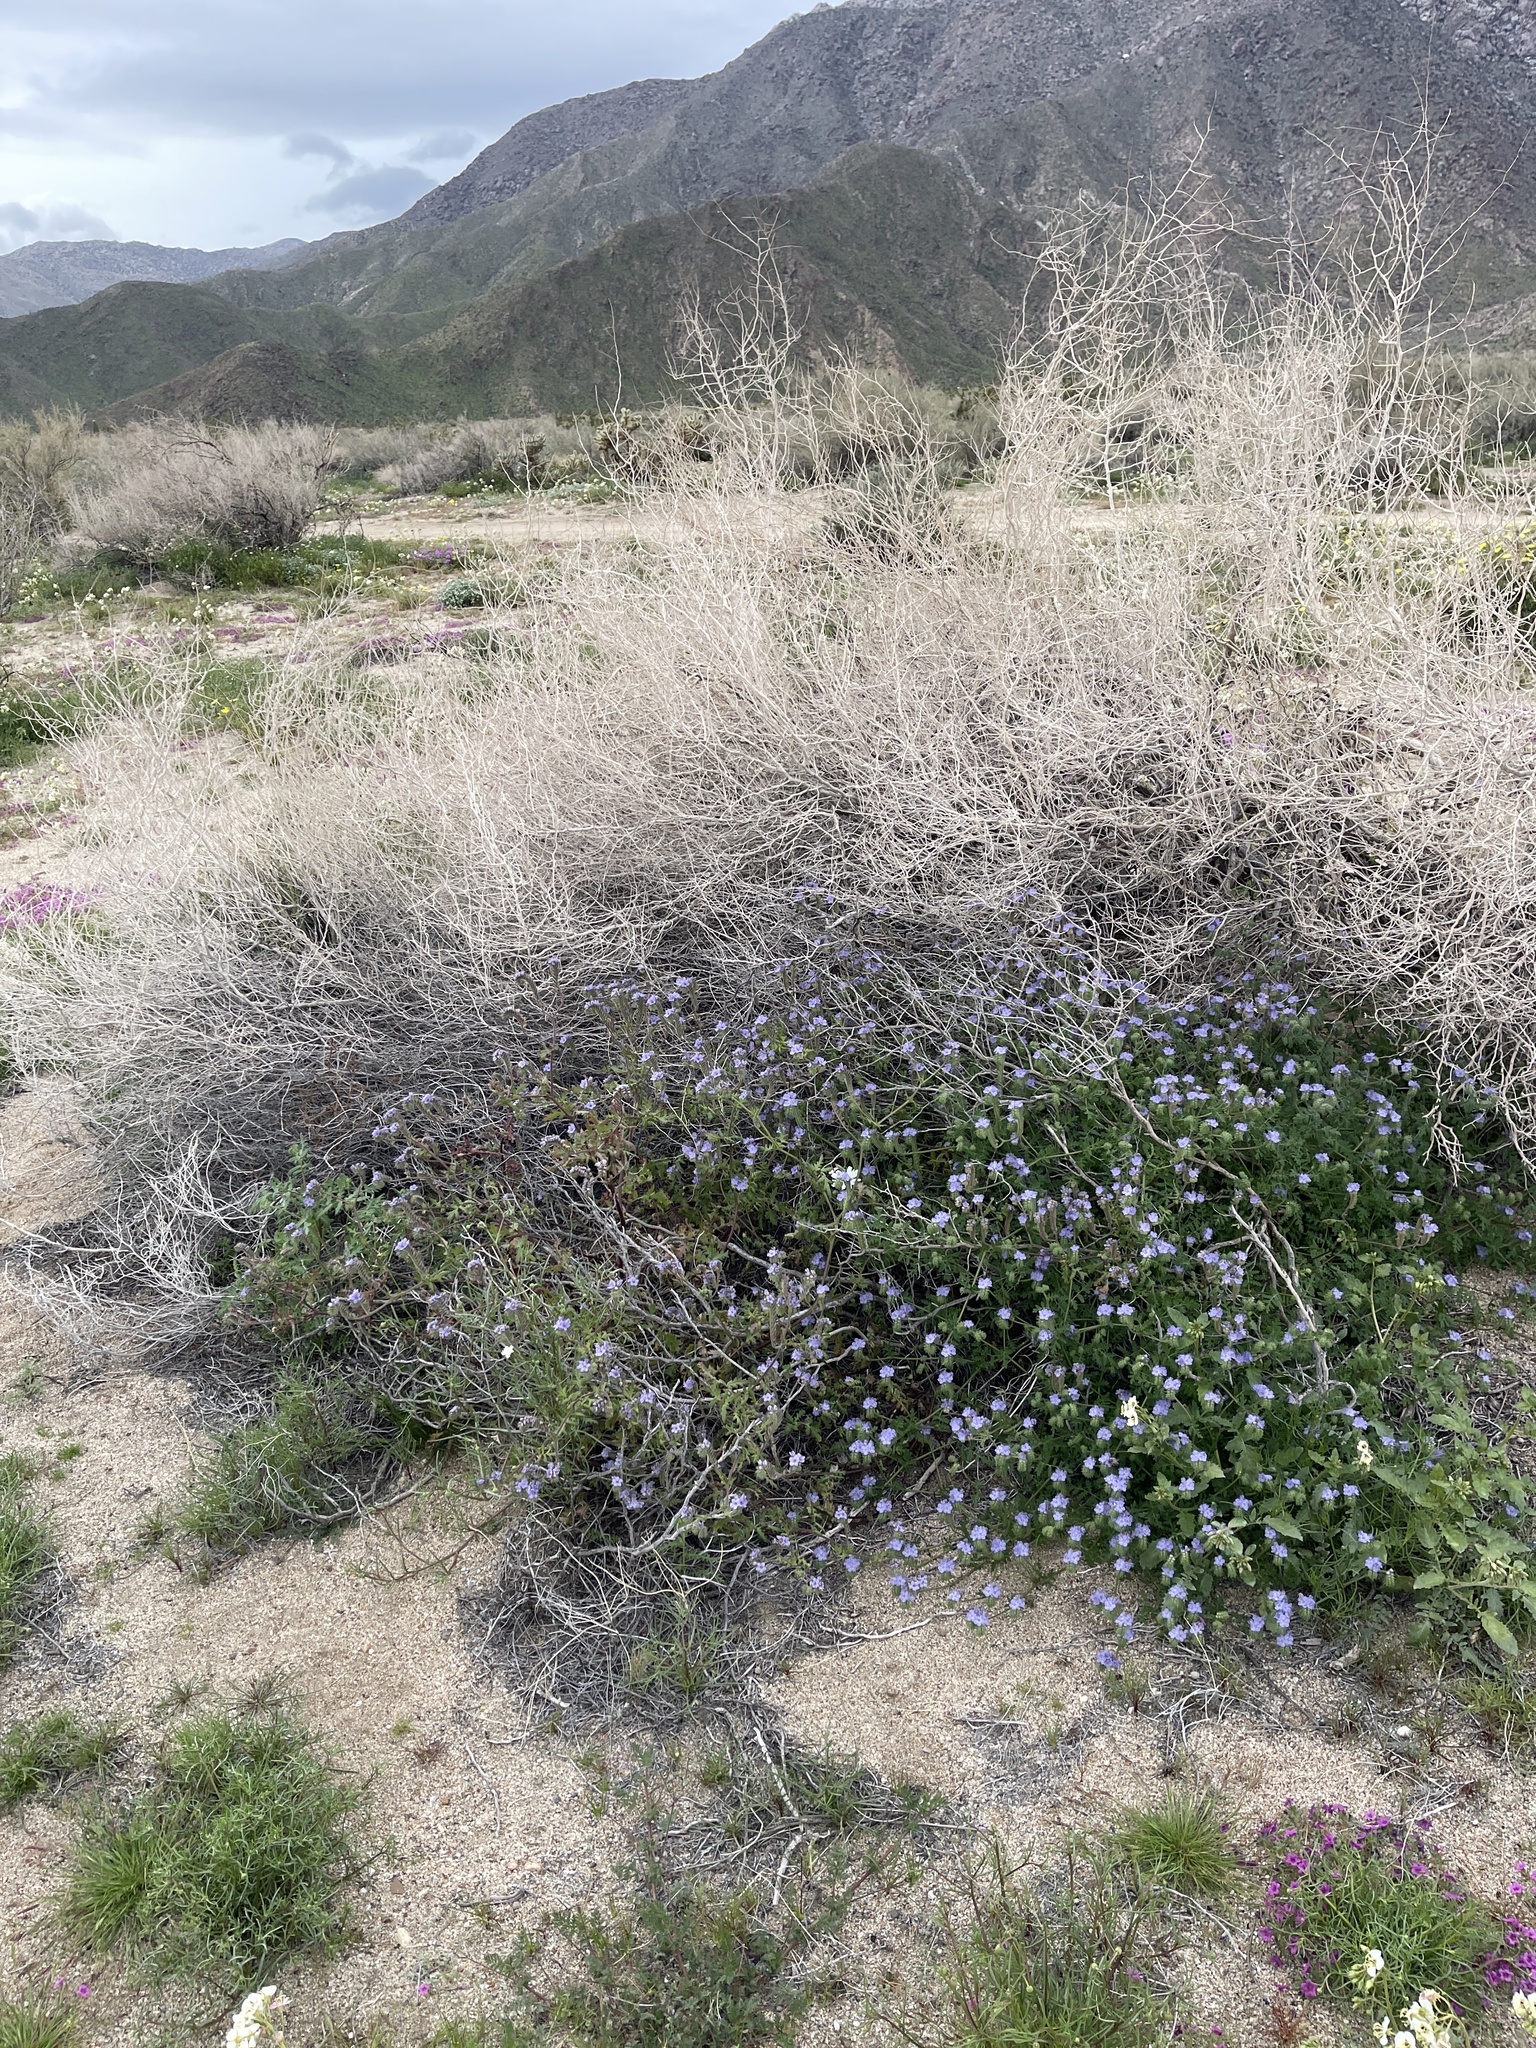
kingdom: Plantae
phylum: Tracheophyta
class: Magnoliopsida
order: Asterales
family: Asteraceae
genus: Rafinesquia
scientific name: Rafinesquia neomexicana
